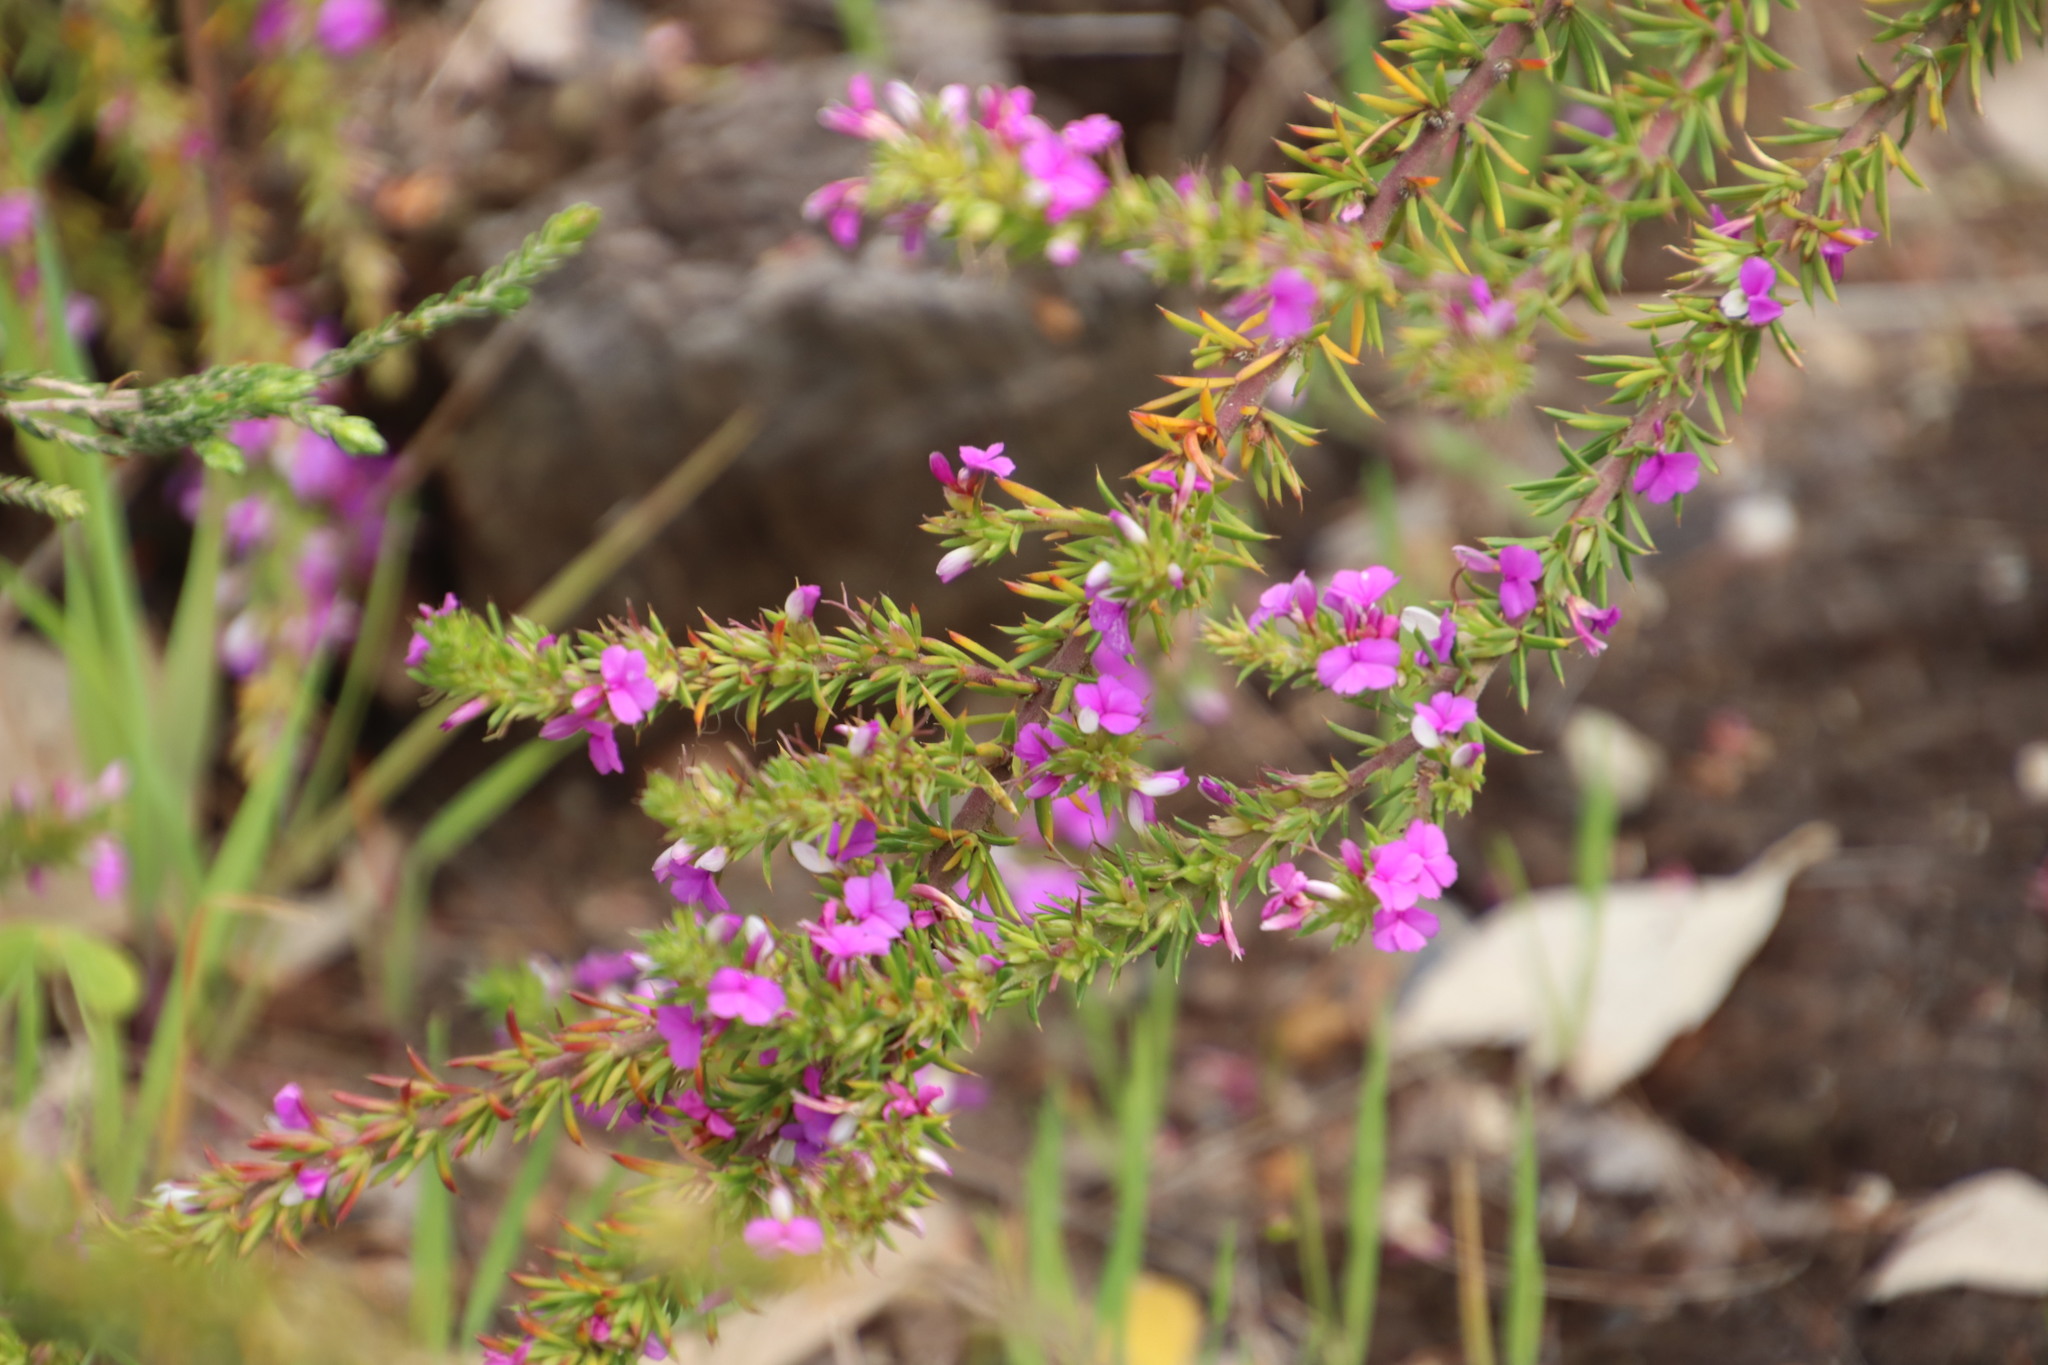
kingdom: Plantae
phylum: Tracheophyta
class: Magnoliopsida
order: Fabales
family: Polygalaceae
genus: Muraltia
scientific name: Muraltia heisteria
